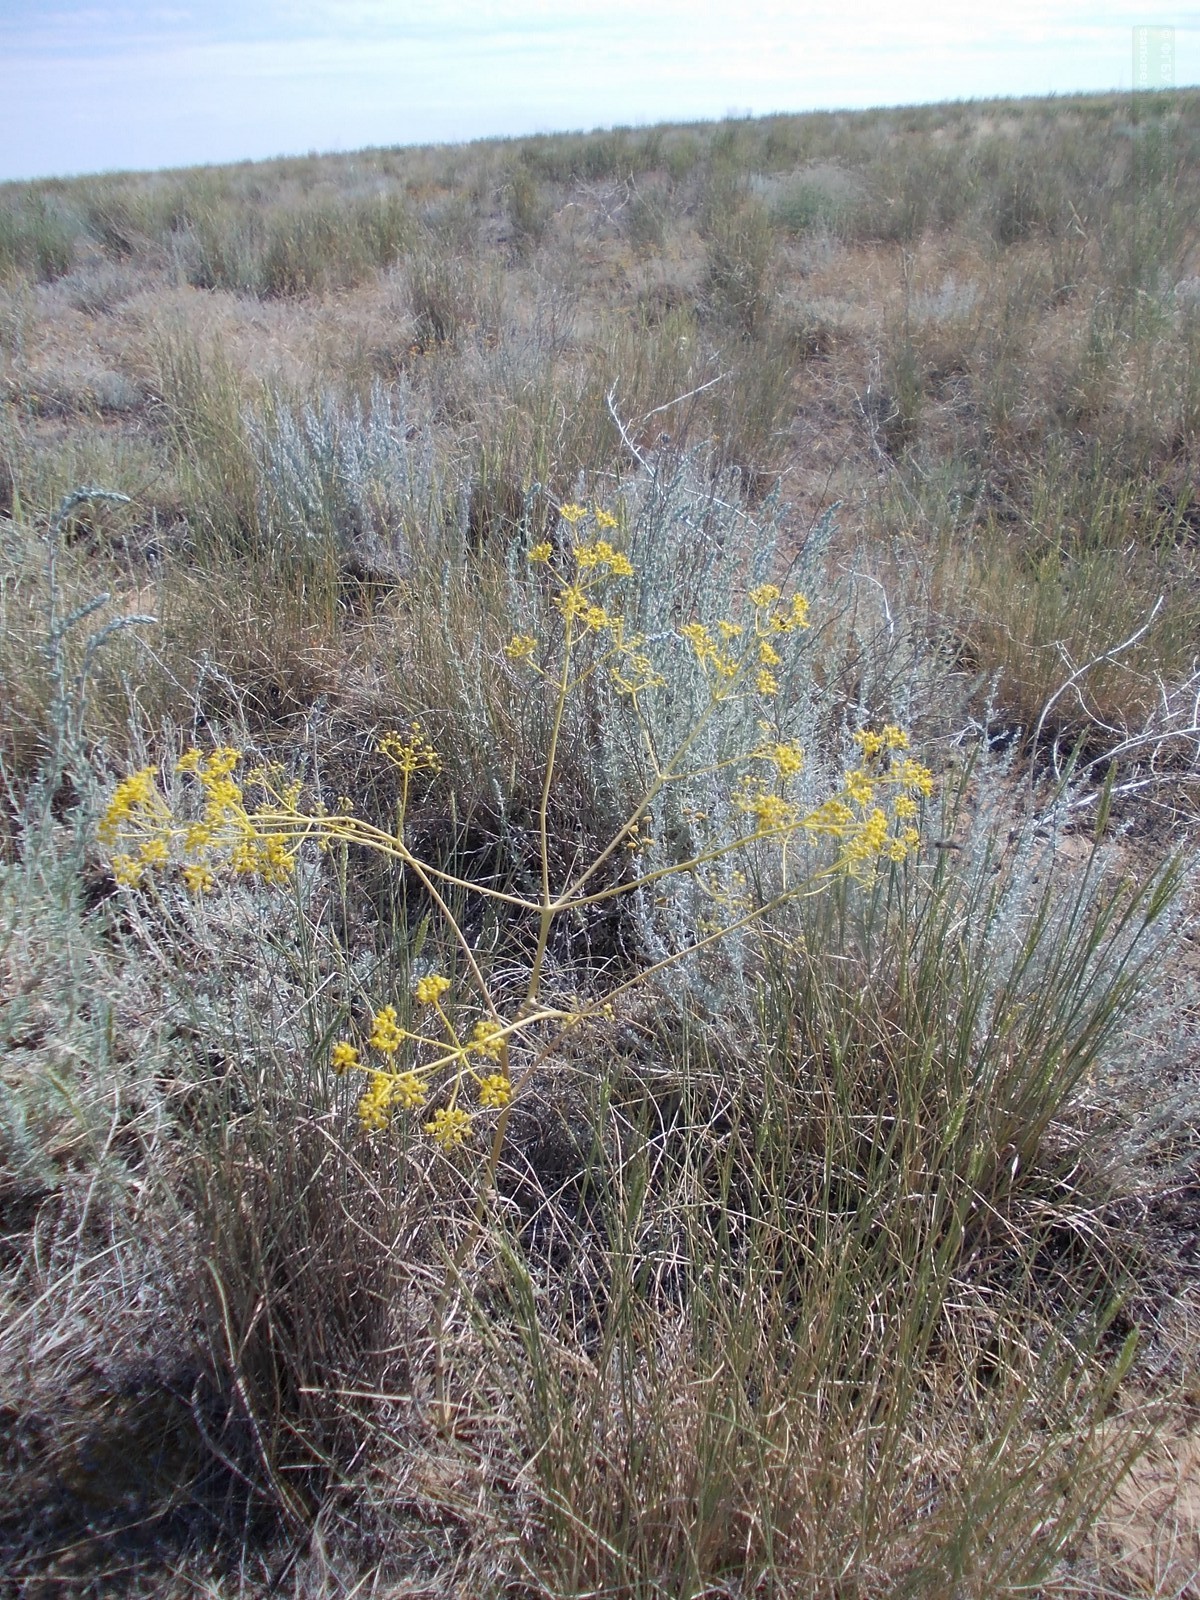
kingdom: Plantae
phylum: Tracheophyta
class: Magnoliopsida
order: Apiales
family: Apiaceae
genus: Ferula
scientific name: Ferula caspica
